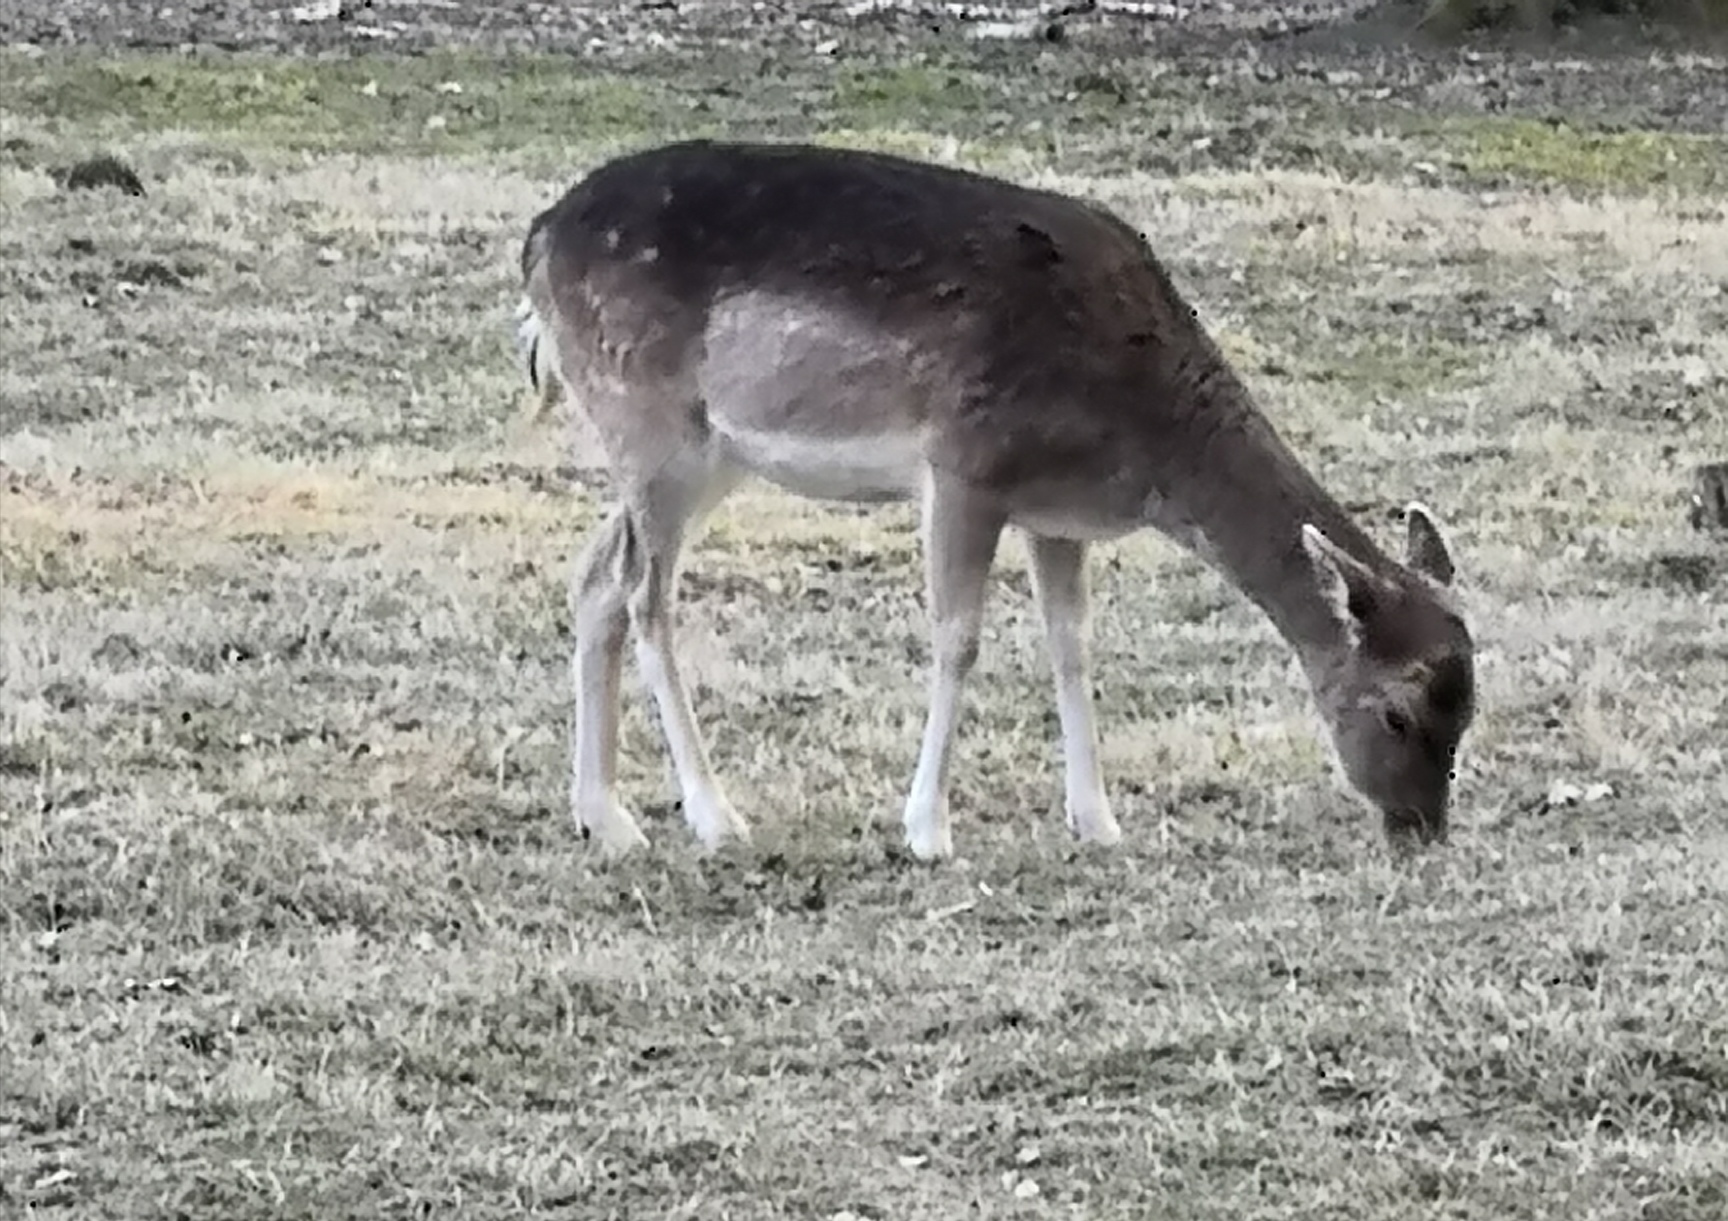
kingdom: Animalia
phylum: Chordata
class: Mammalia
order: Artiodactyla
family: Cervidae
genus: Dama
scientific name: Dama dama
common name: Fallow deer
